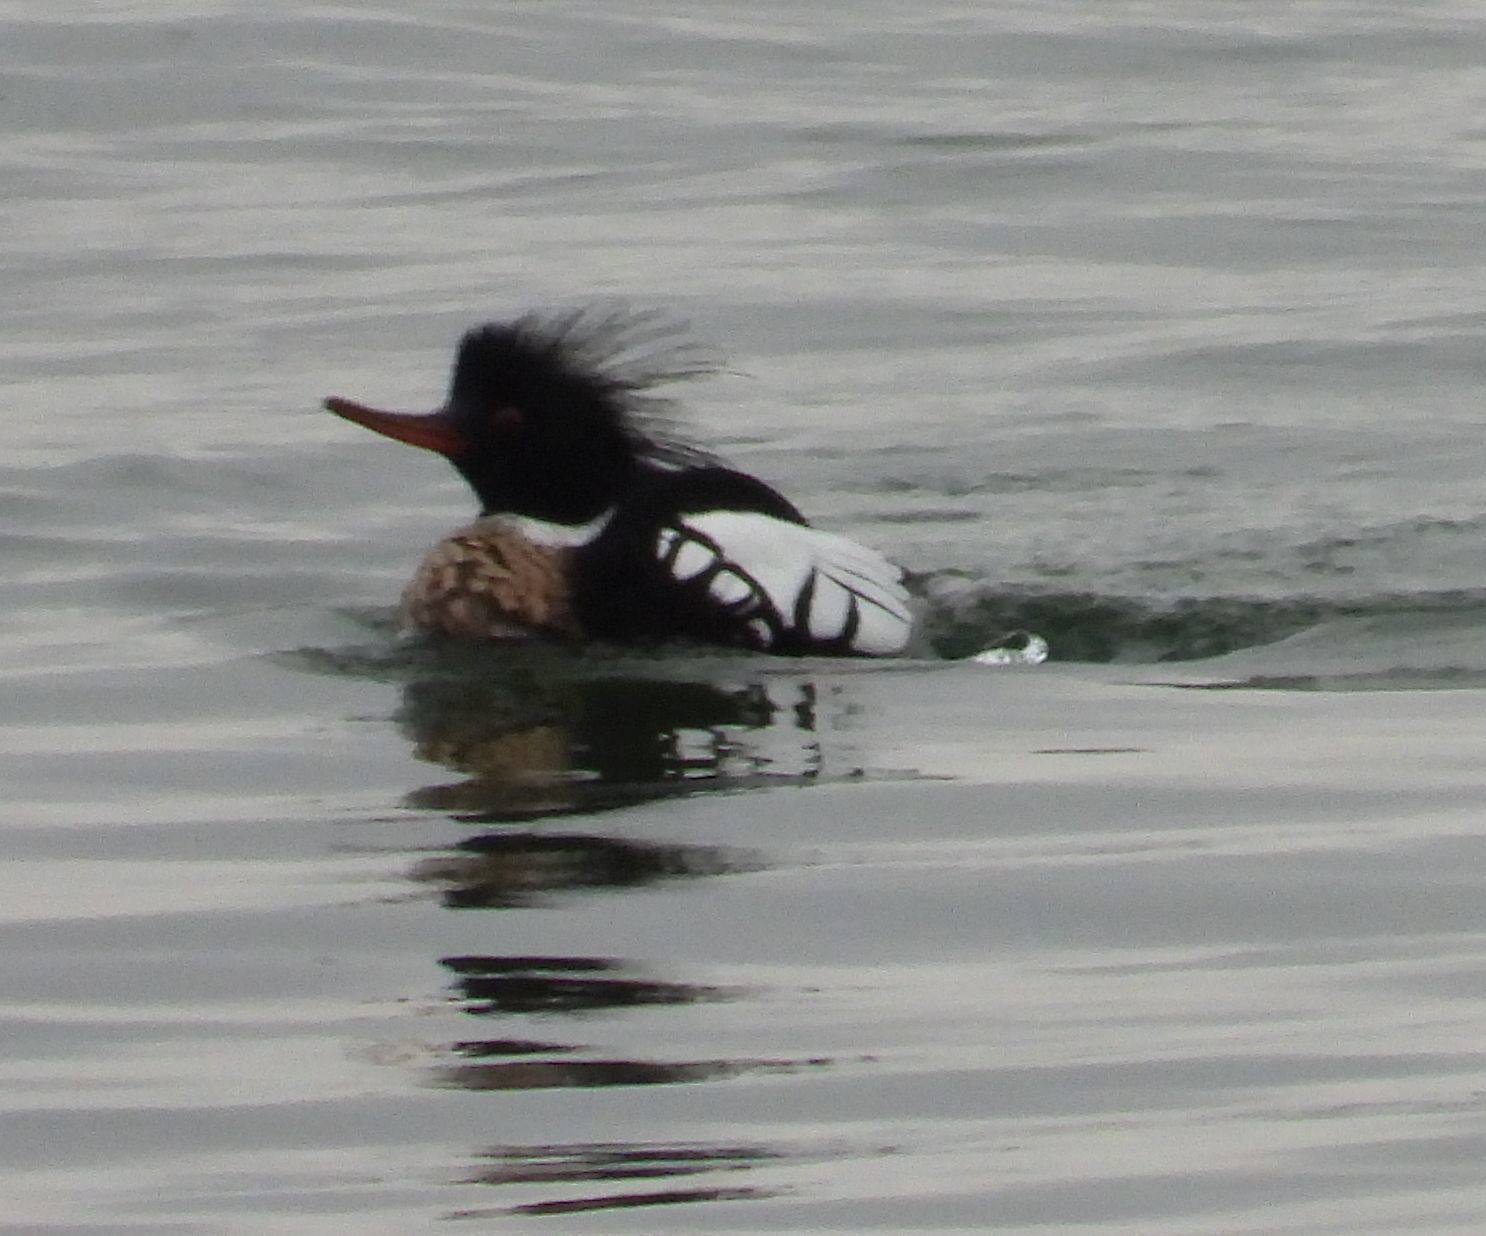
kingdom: Animalia
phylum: Chordata
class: Aves
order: Anseriformes
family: Anatidae
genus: Mergus
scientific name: Mergus serrator
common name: Red-breasted merganser
